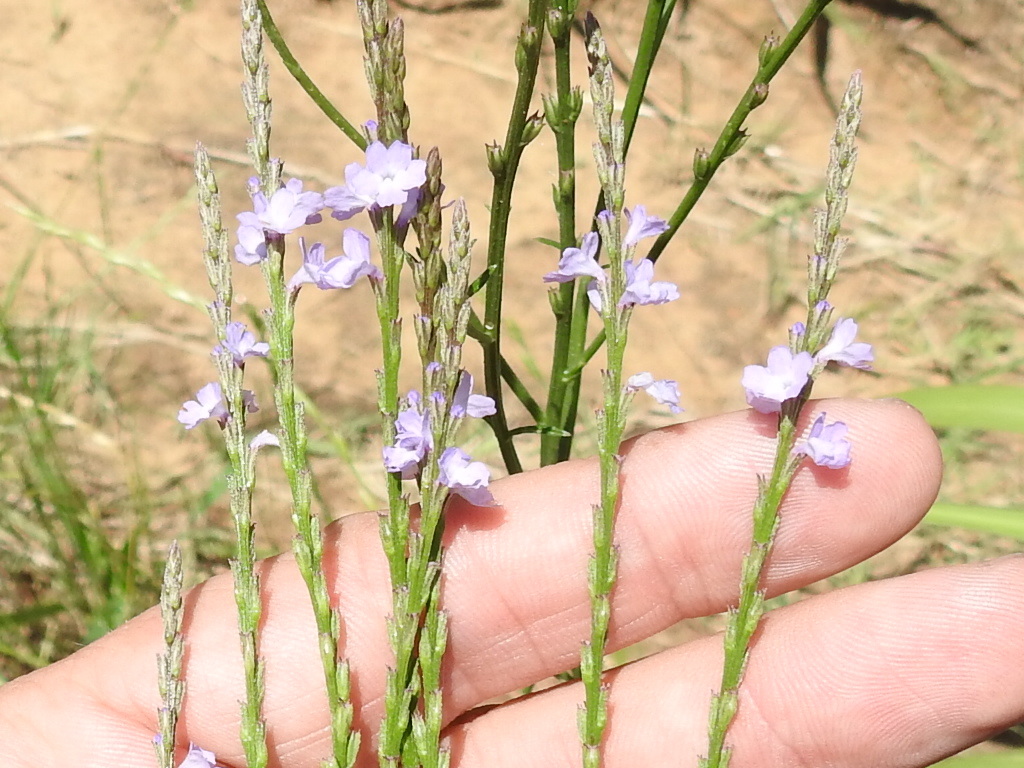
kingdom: Plantae
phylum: Tracheophyta
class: Magnoliopsida
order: Lamiales
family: Verbenaceae
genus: Verbena
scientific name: Verbena halei
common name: Texas vervain
